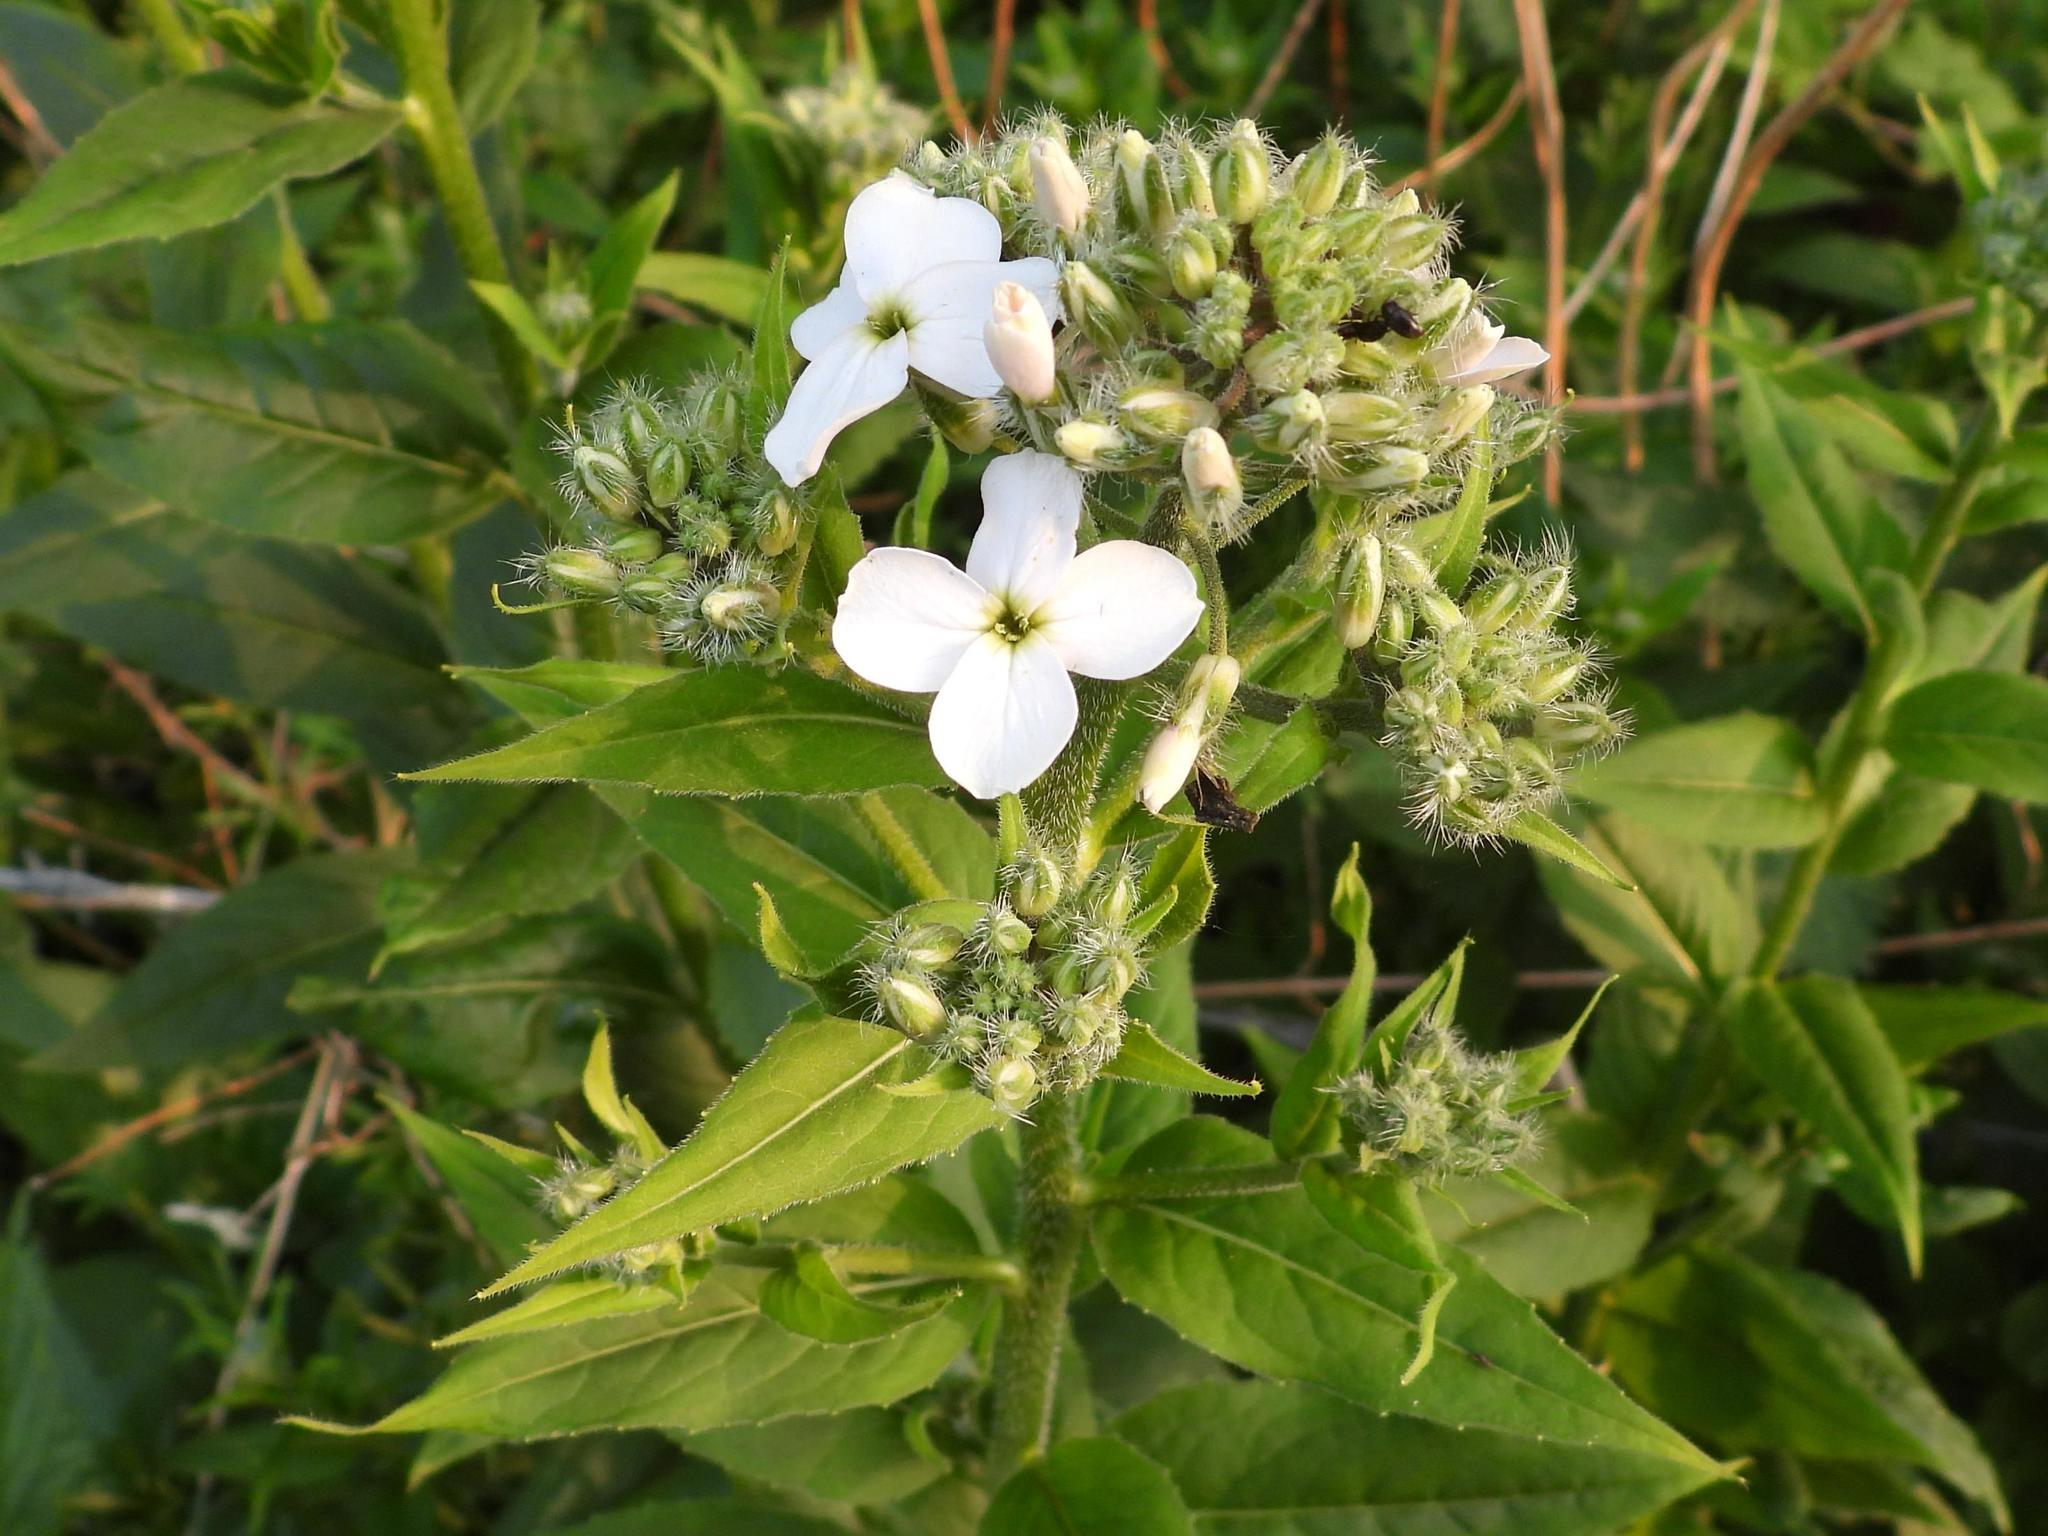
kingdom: Plantae
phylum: Tracheophyta
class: Magnoliopsida
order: Brassicales
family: Brassicaceae
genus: Hesperis
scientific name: Hesperis matronalis
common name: Dame's-violet
